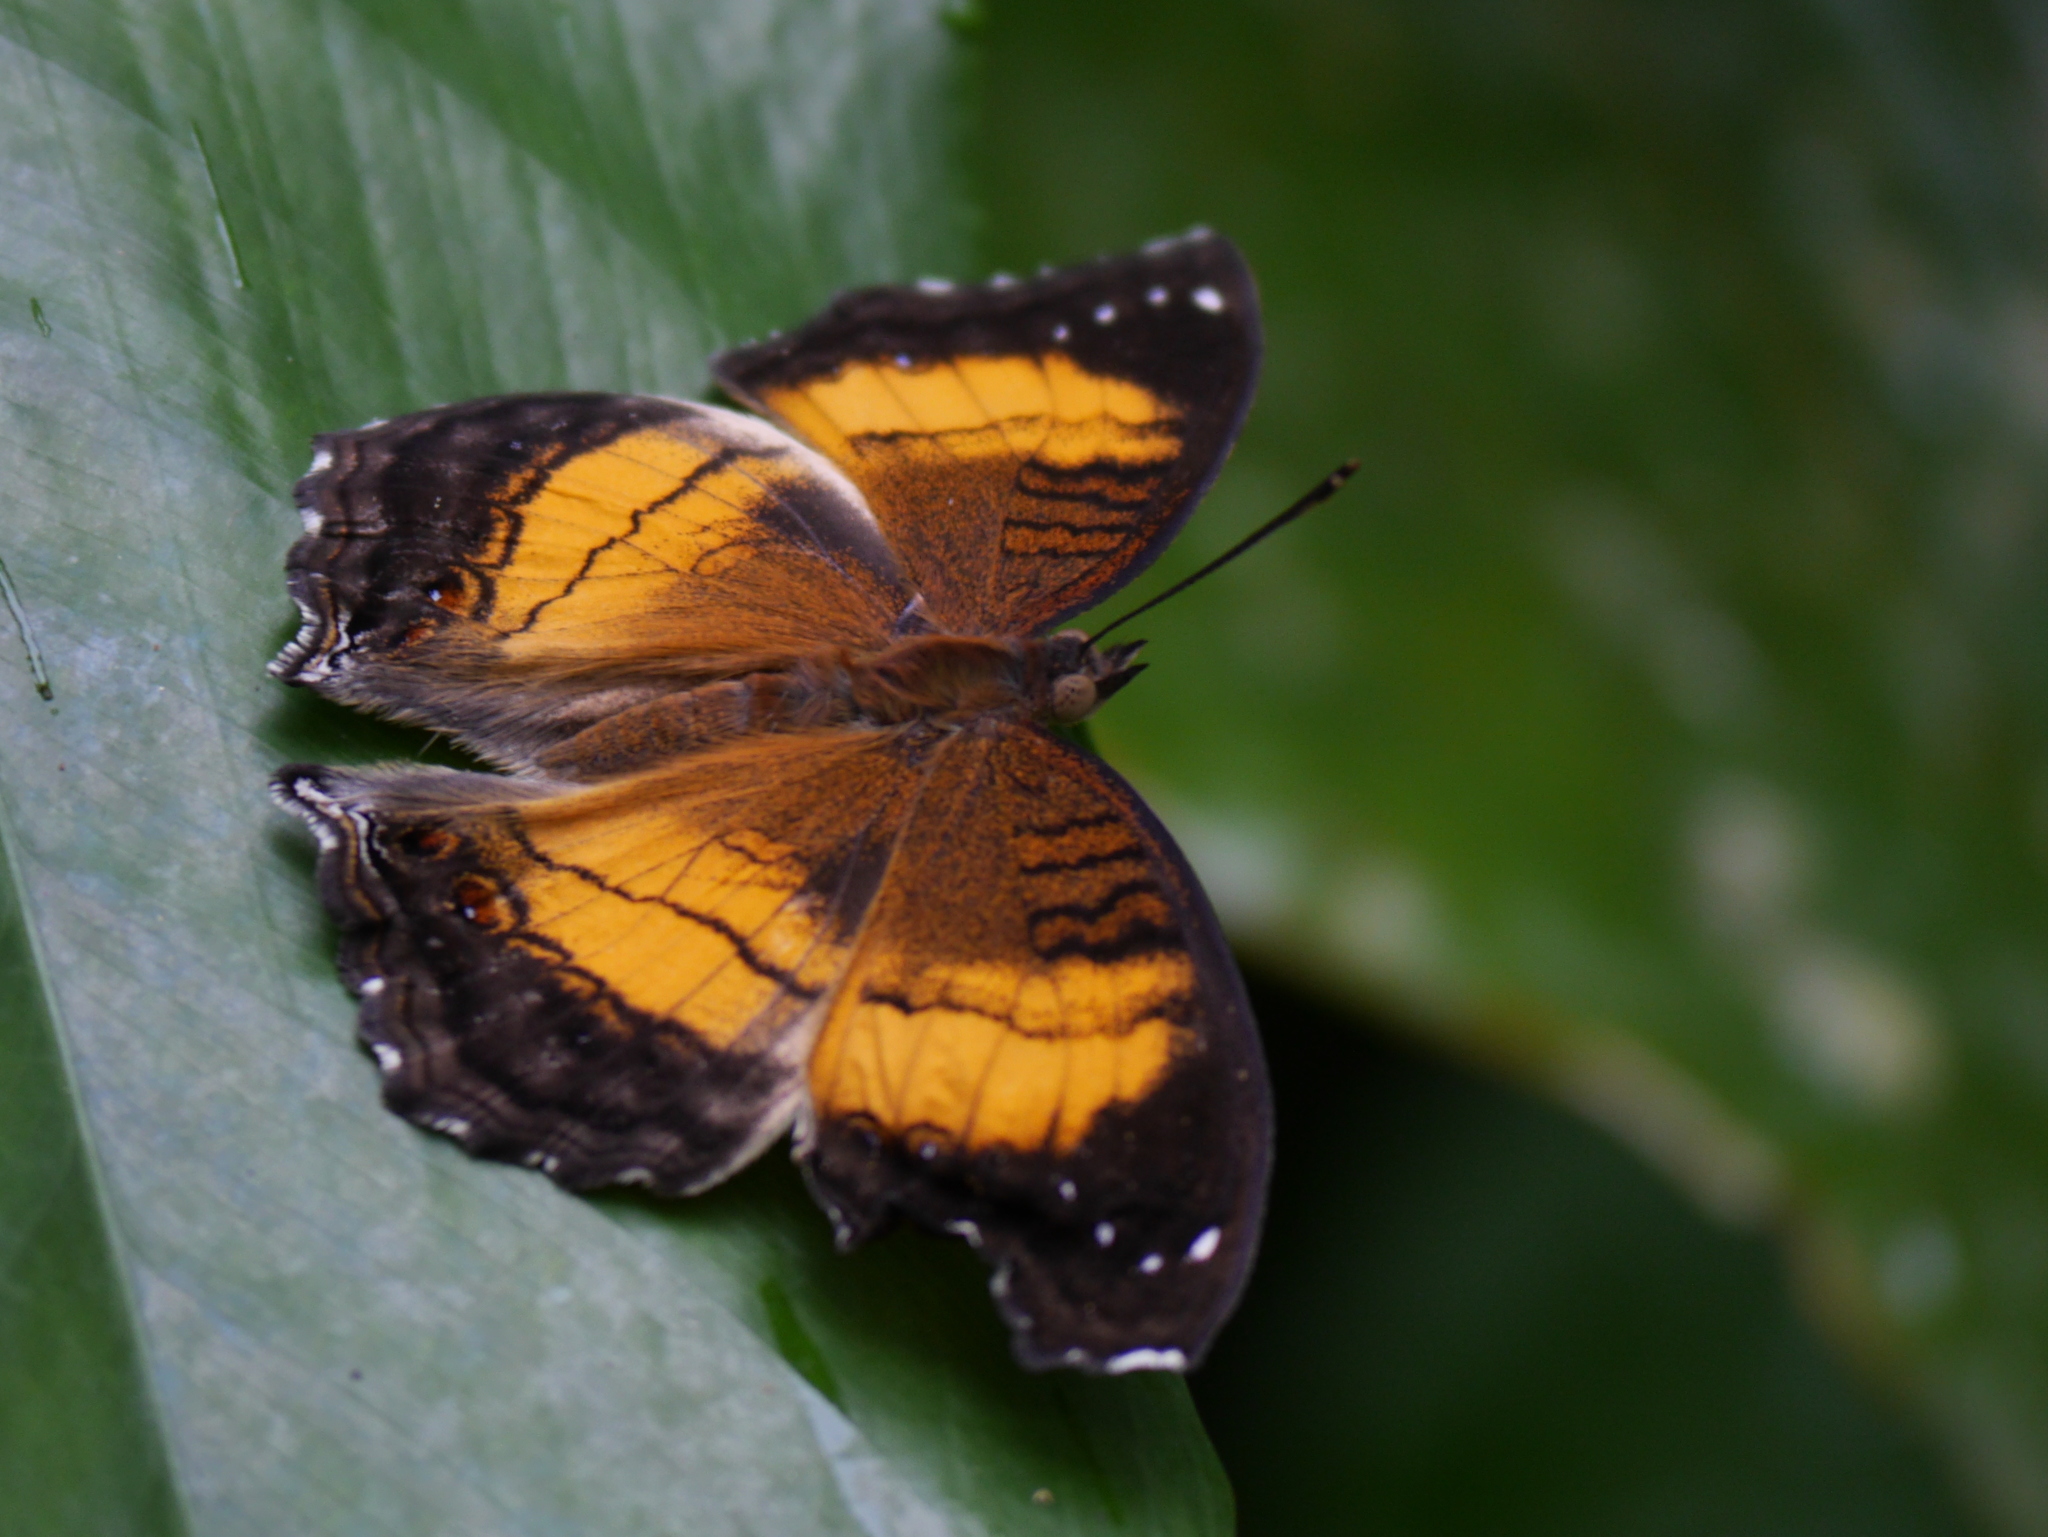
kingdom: Animalia
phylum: Arthropoda
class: Insecta
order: Lepidoptera
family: Nymphalidae
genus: Junonia
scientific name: Junonia terea
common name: Soldier pansy
